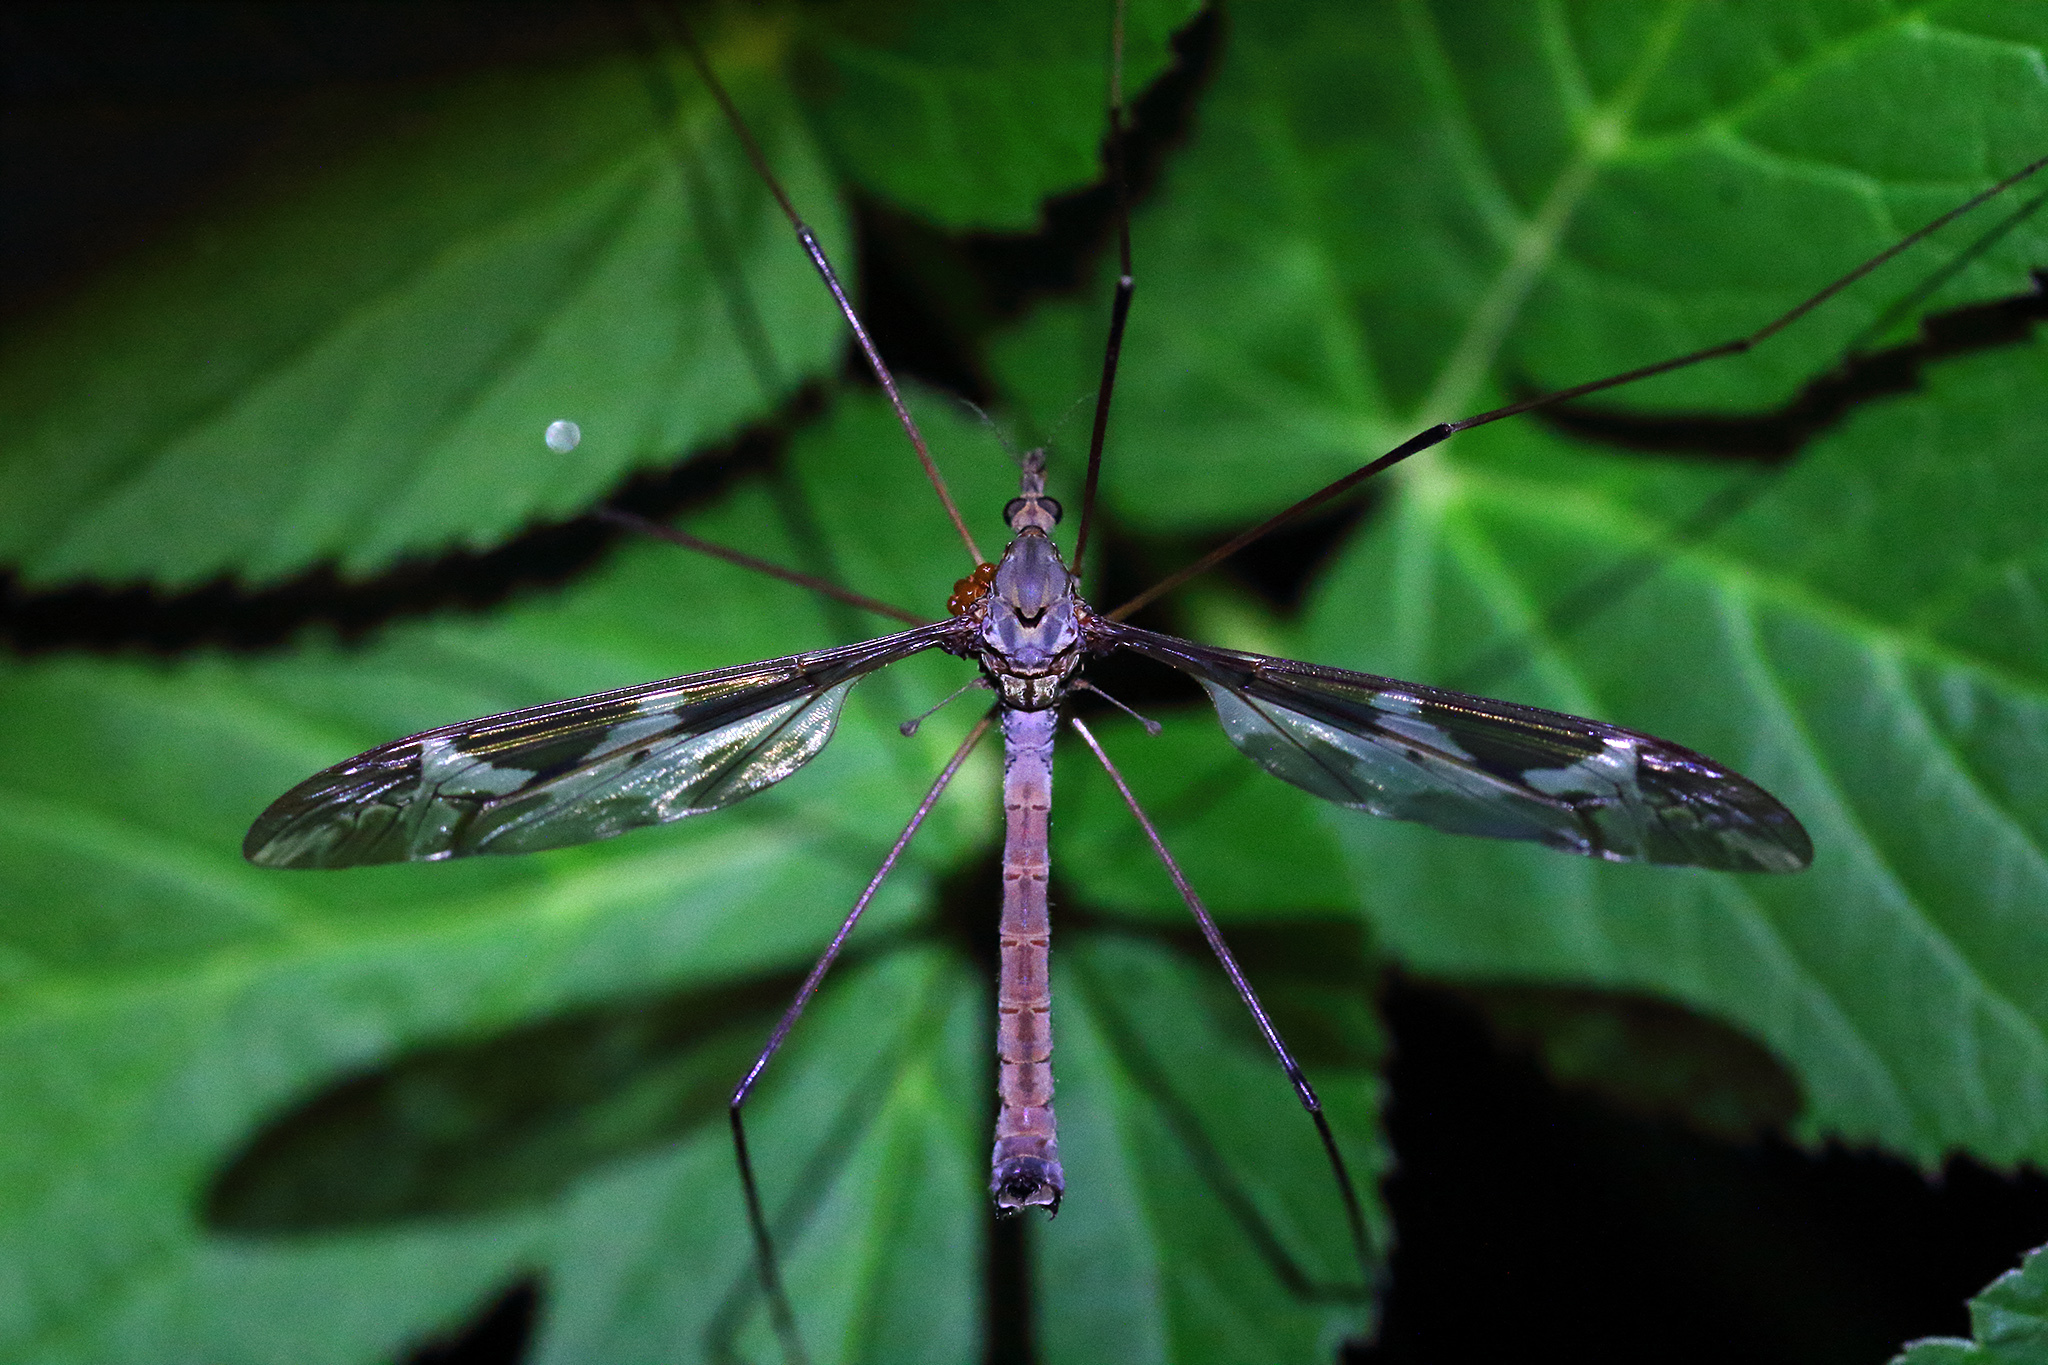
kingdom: Animalia
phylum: Arthropoda
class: Insecta
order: Diptera
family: Tipulidae
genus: Tipula
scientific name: Tipula maxima
